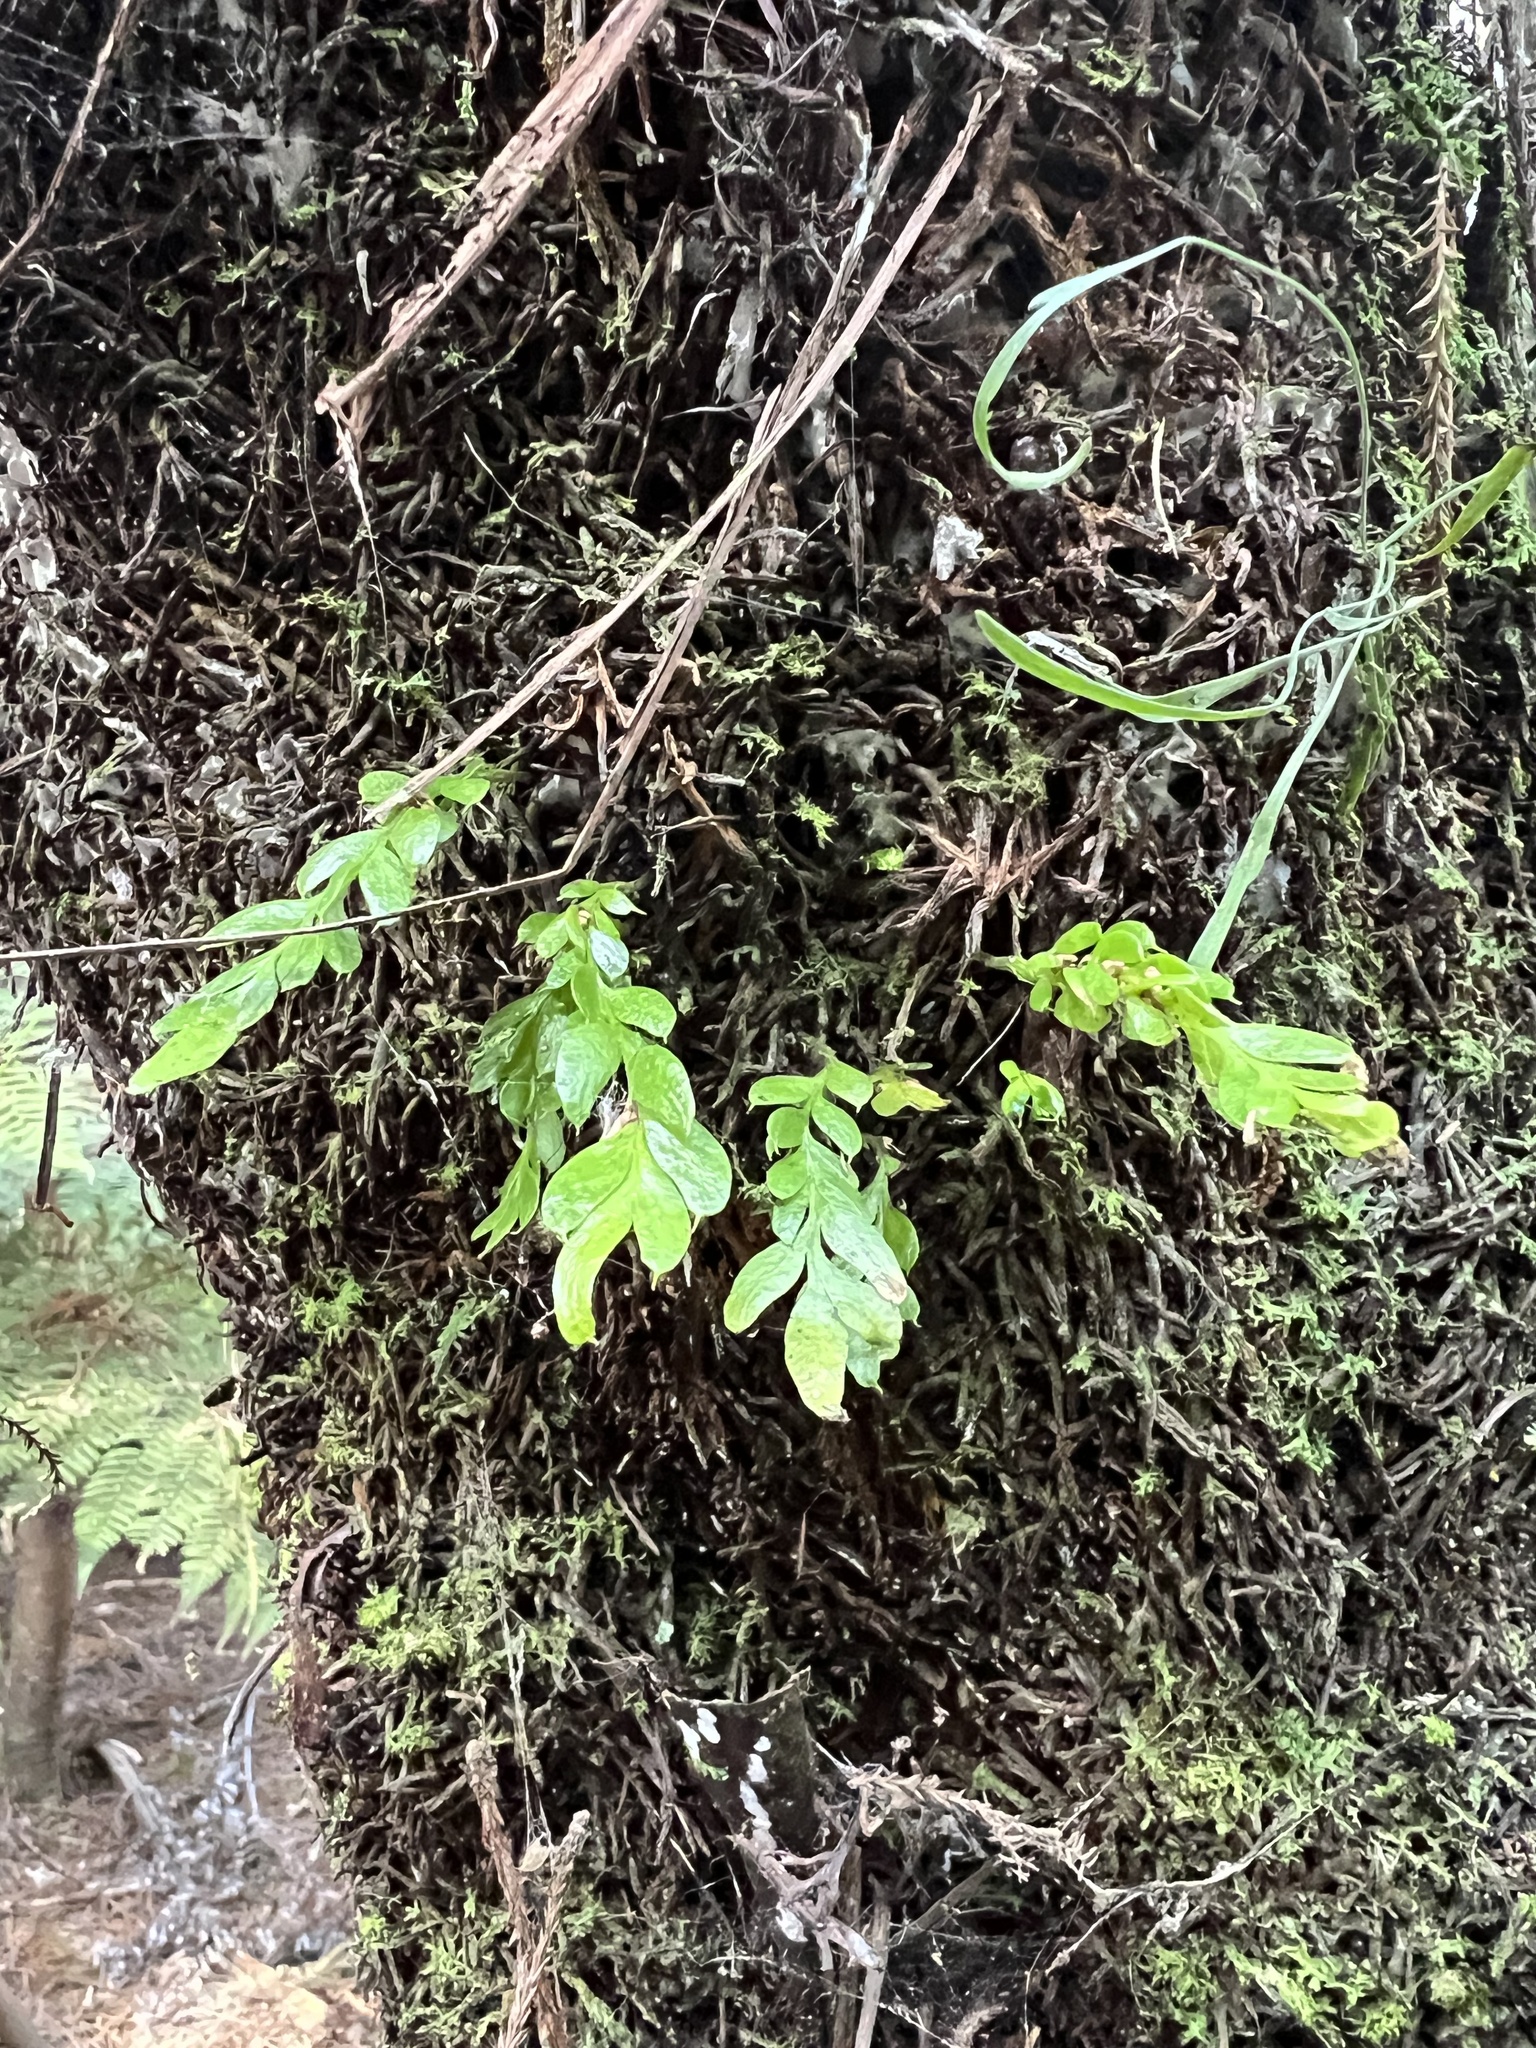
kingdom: Plantae
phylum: Tracheophyta
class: Polypodiopsida
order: Psilotales
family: Psilotaceae
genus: Tmesipteris
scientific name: Tmesipteris lanceolata
